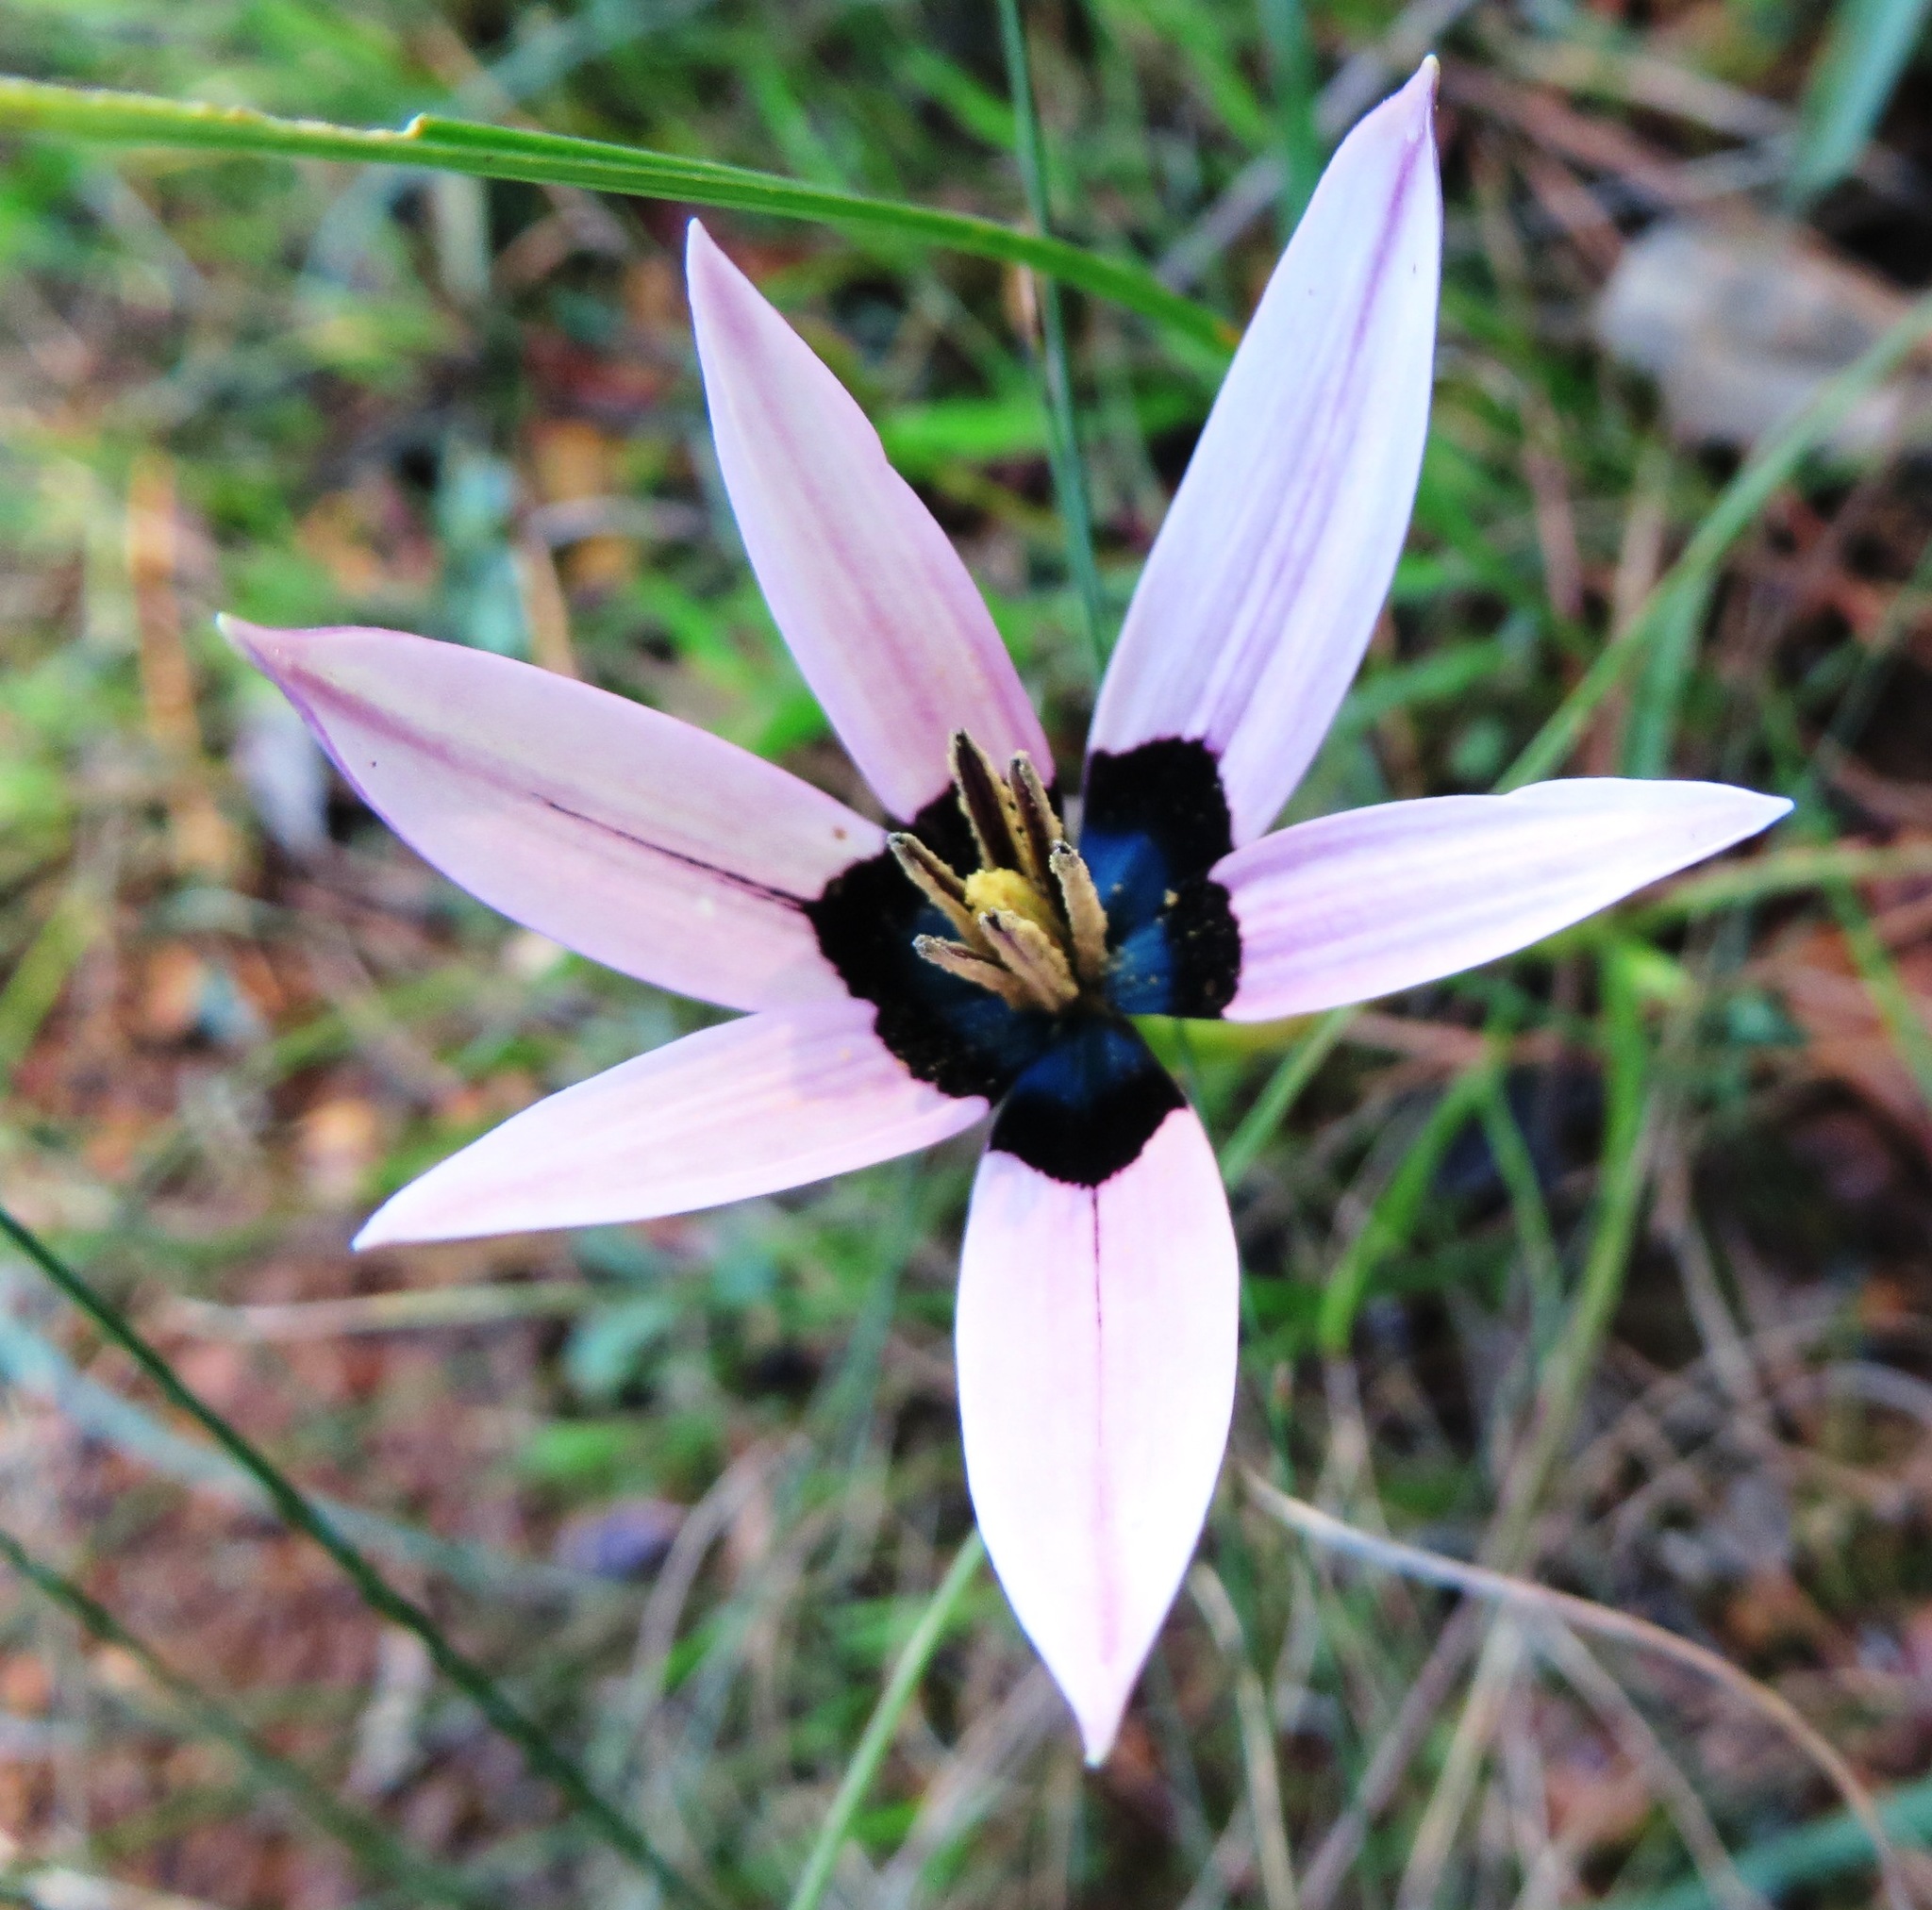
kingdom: Plantae
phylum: Tracheophyta
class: Liliopsida
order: Asparagales
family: Hypoxidaceae
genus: Pauridia
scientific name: Pauridia capensis
